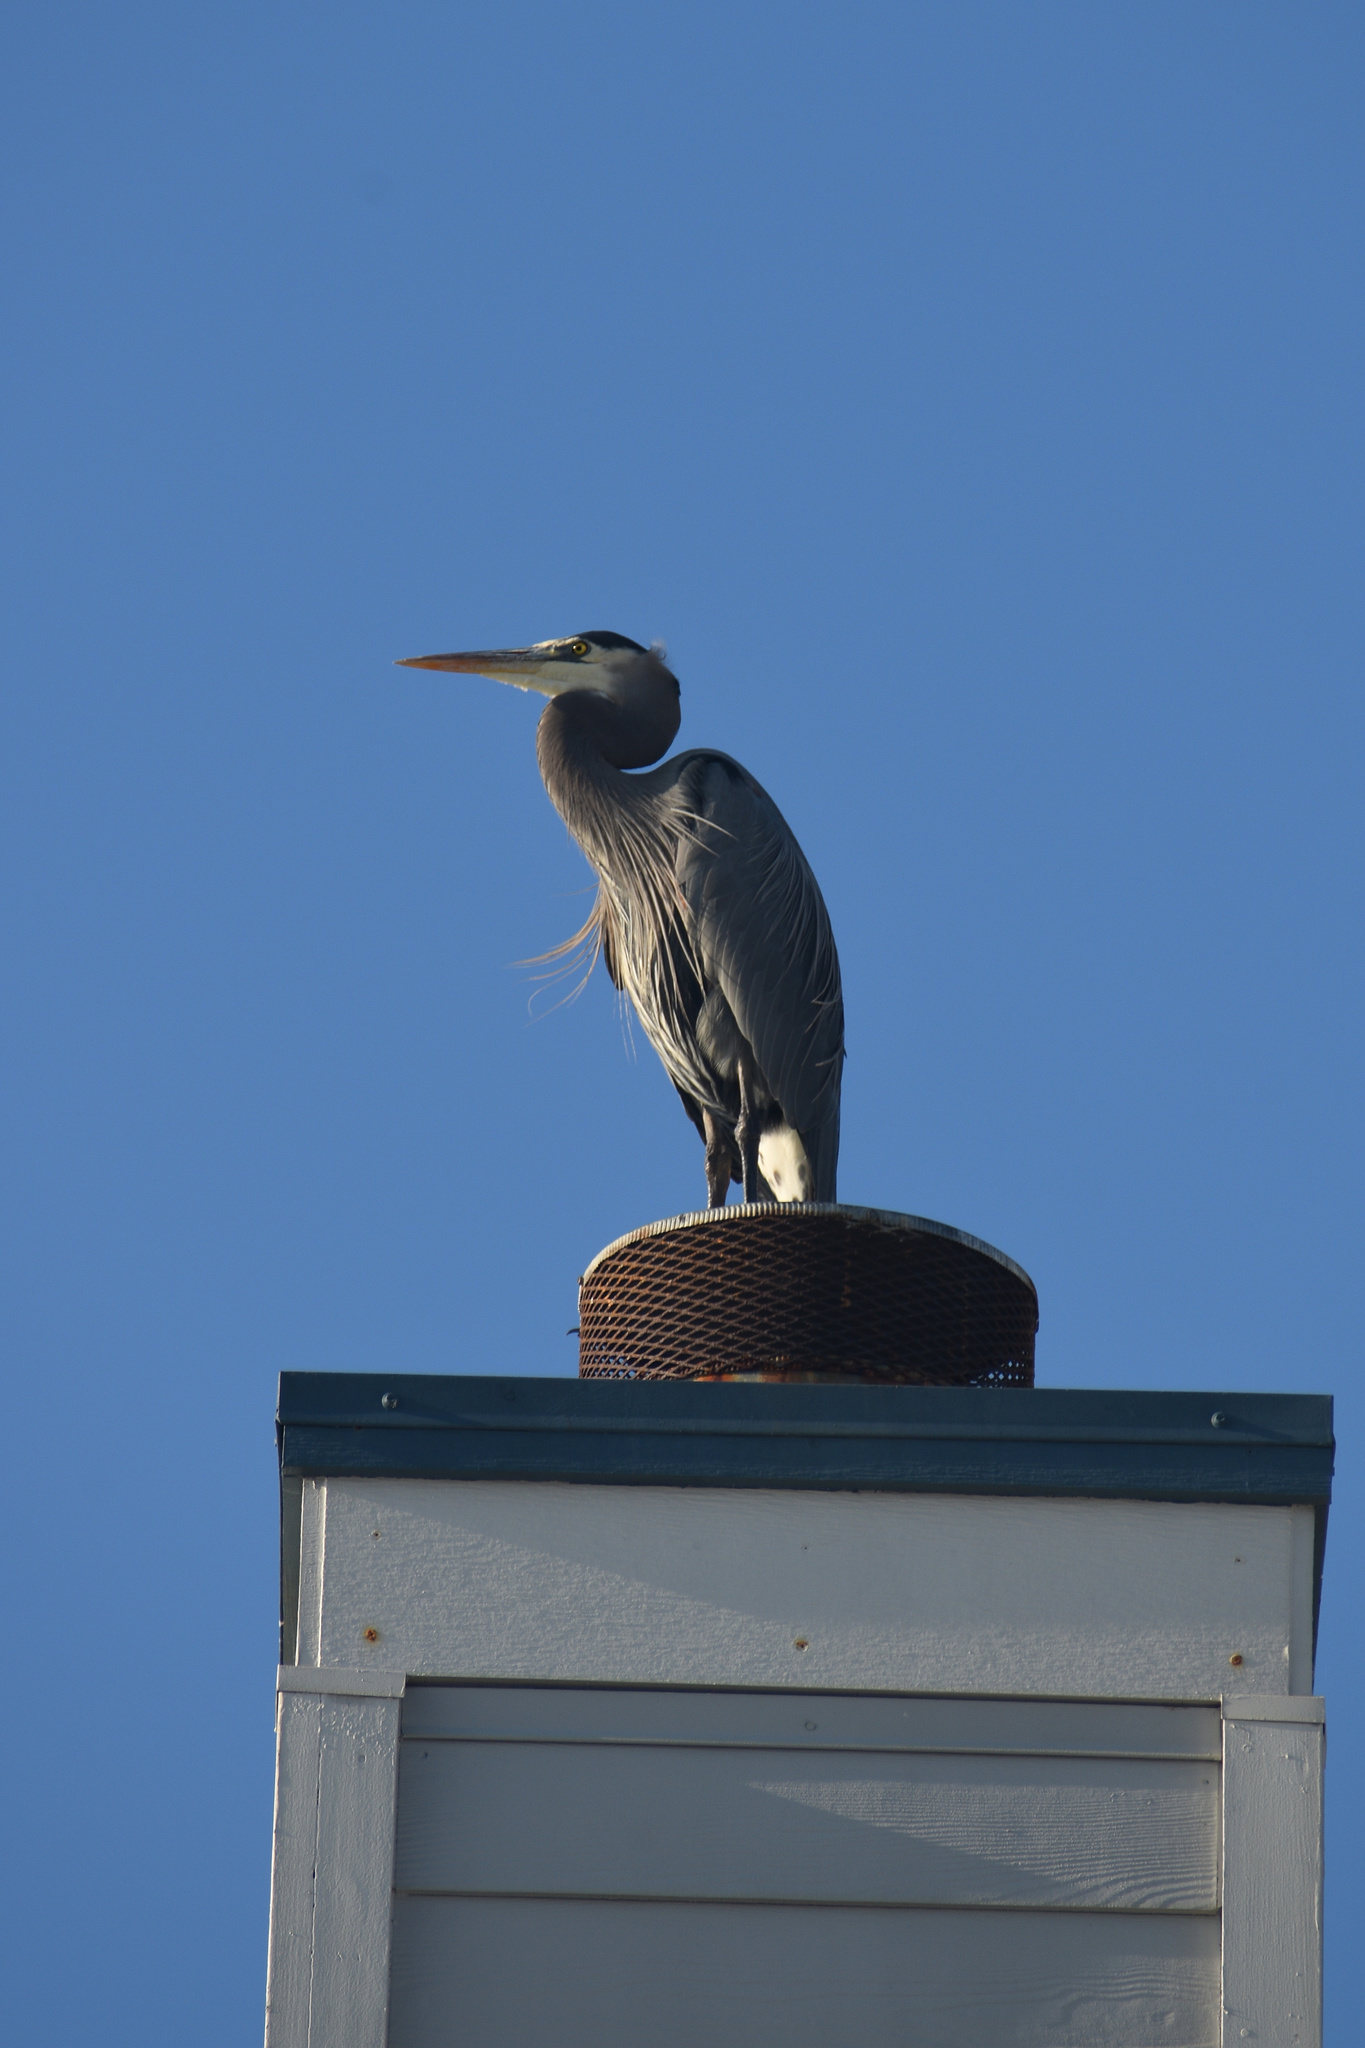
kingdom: Animalia
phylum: Chordata
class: Aves
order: Pelecaniformes
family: Ardeidae
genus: Ardea
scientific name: Ardea herodias
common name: Great blue heron
